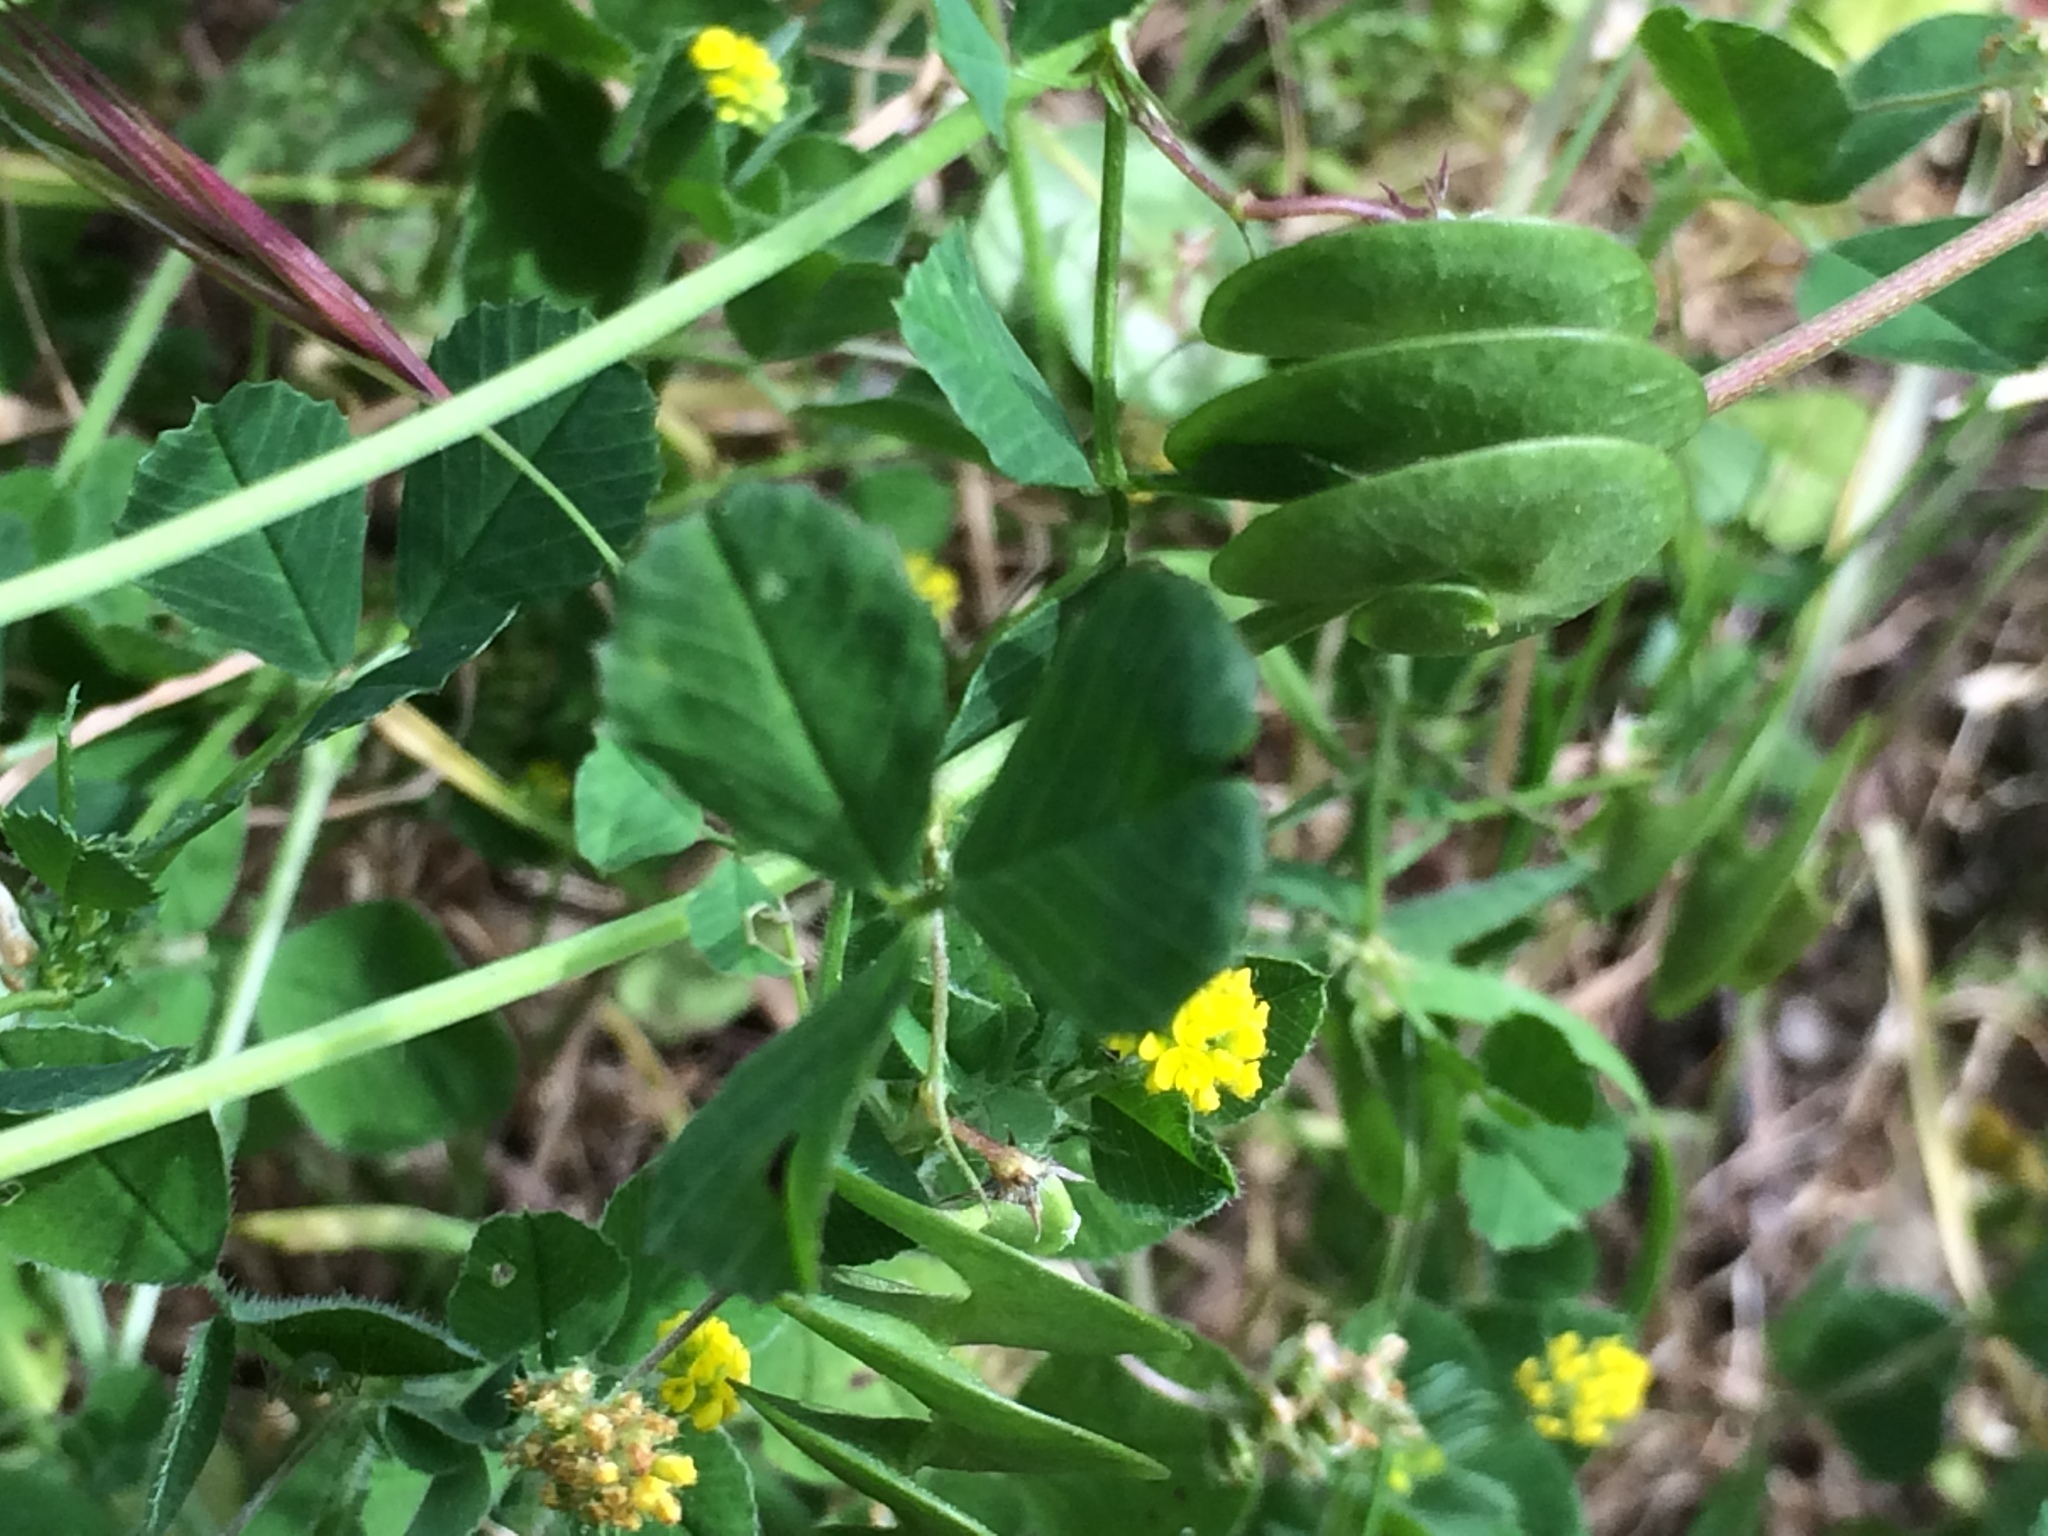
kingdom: Plantae
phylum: Tracheophyta
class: Magnoliopsida
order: Fabales
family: Fabaceae
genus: Medicago
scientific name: Medicago orbicularis
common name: Button medick
